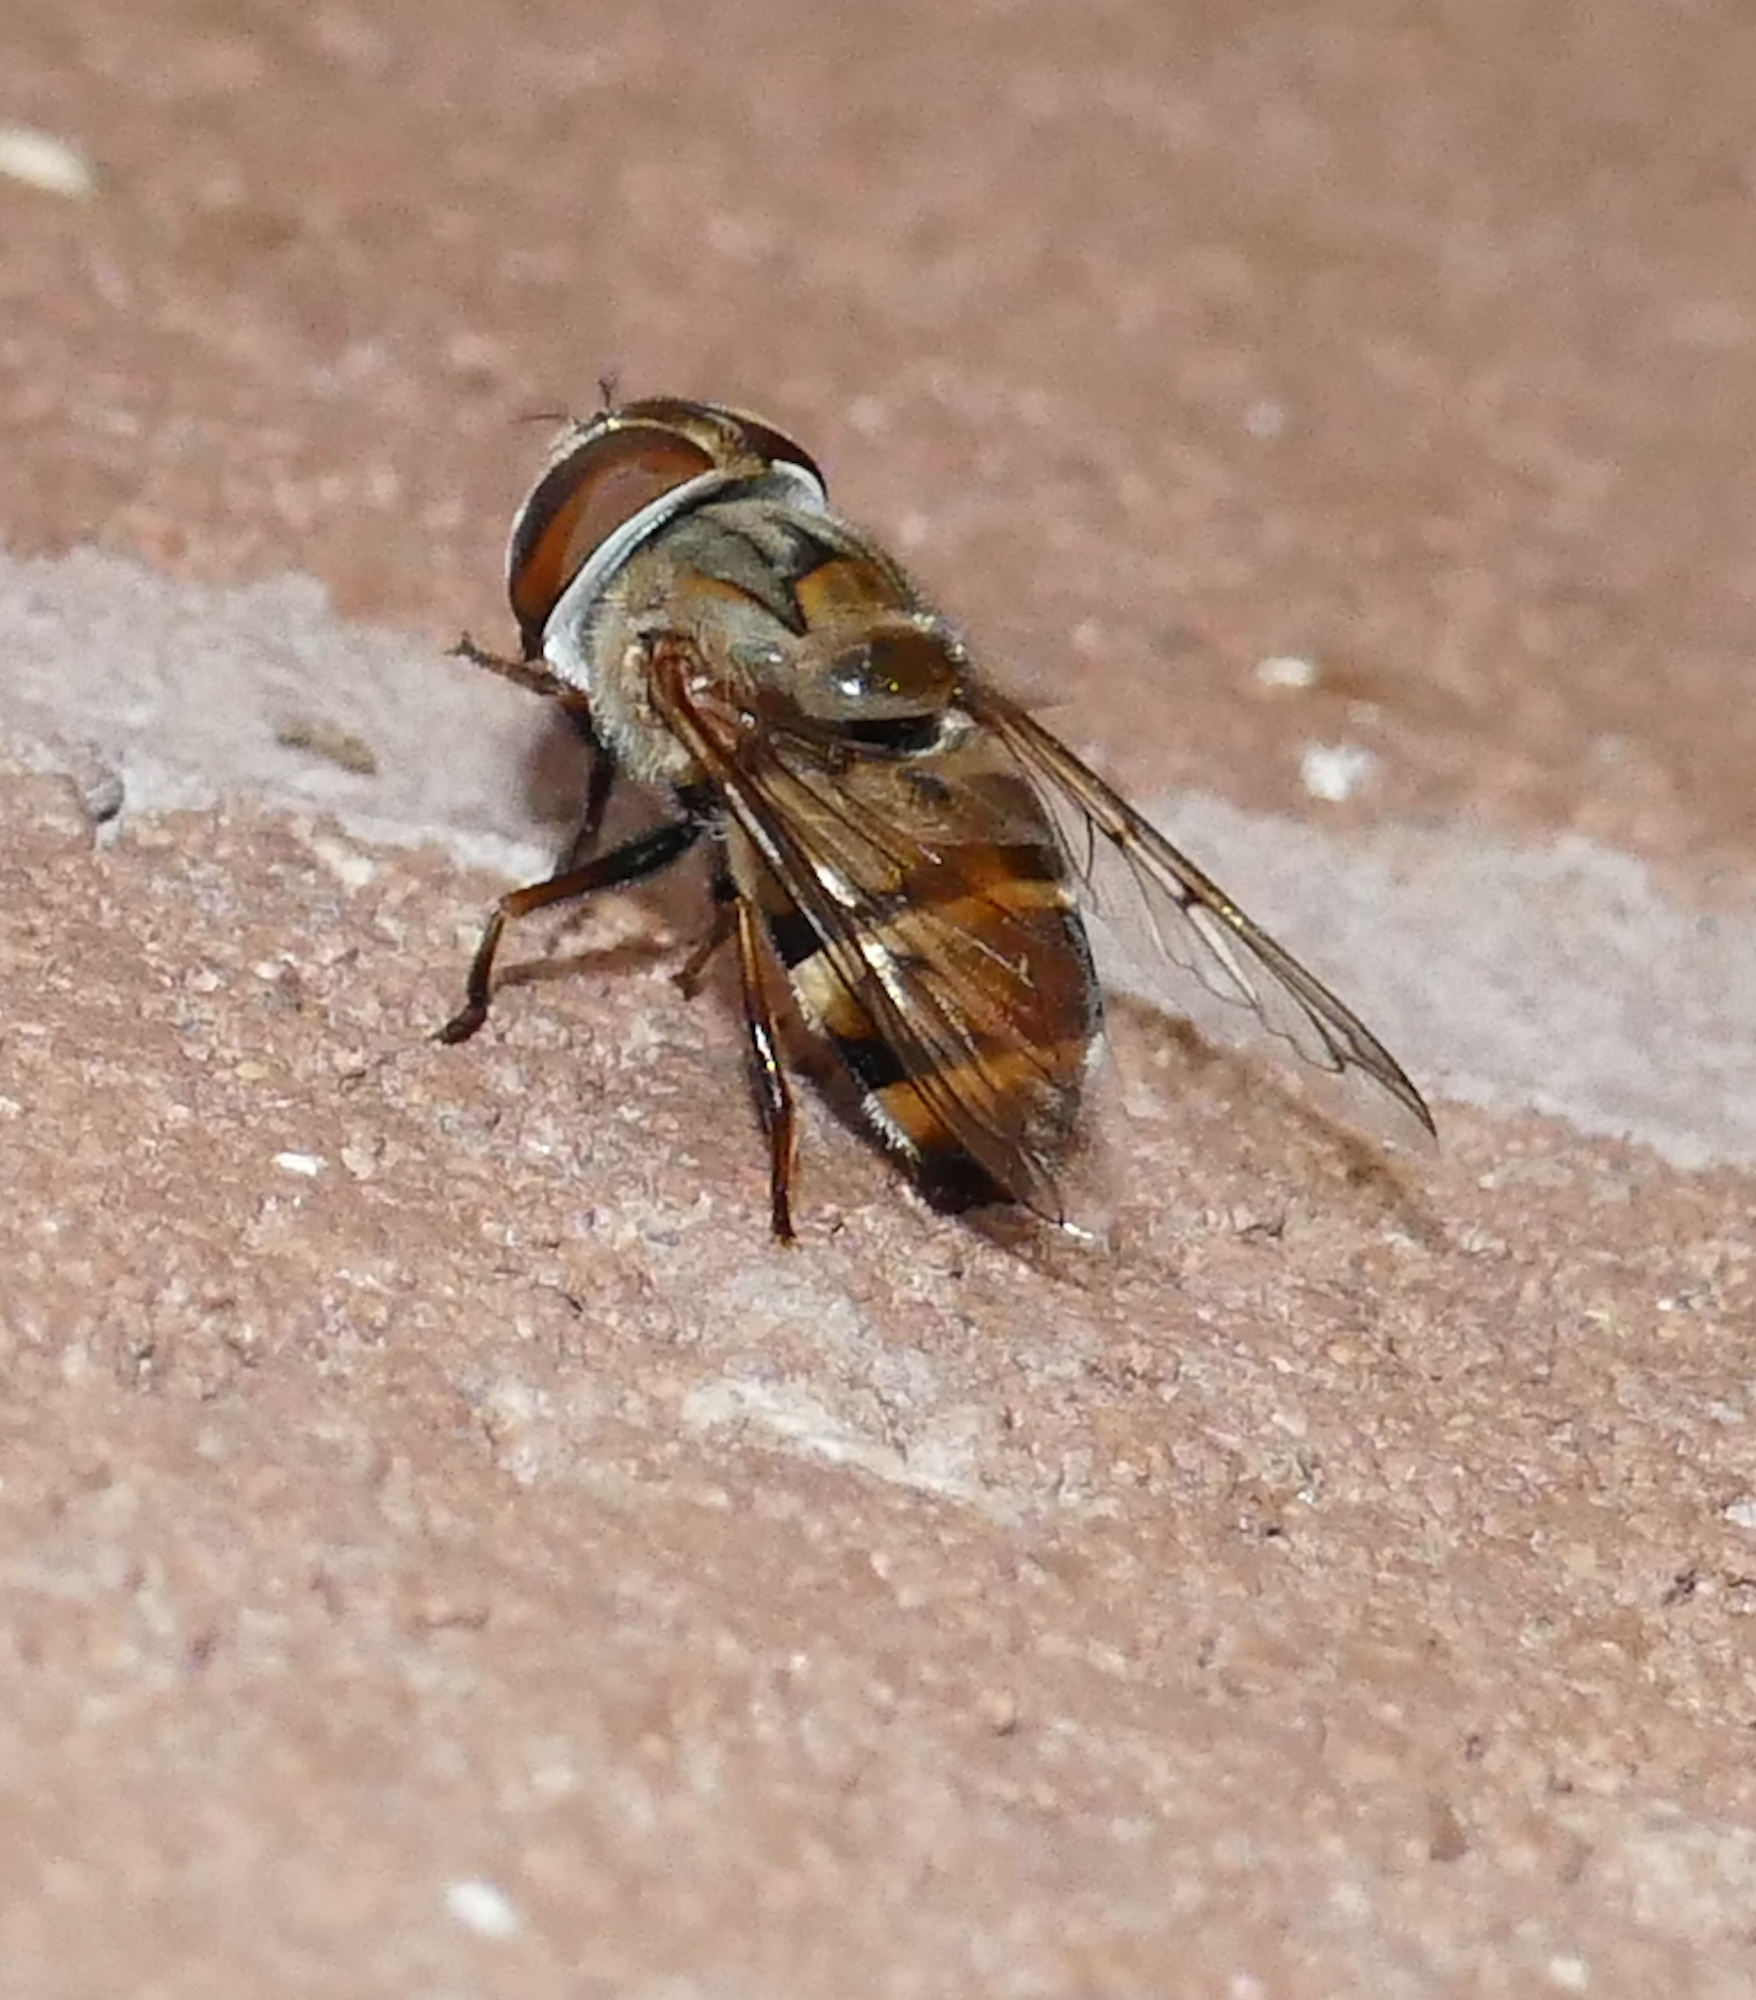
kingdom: Animalia
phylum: Arthropoda
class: Insecta
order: Diptera
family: Syrphidae
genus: Copestylum
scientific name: Copestylum isabellina
